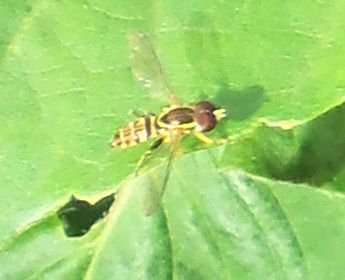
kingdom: Animalia
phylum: Arthropoda
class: Insecta
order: Diptera
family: Syrphidae
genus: Toxomerus
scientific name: Toxomerus geminatus
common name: Eastern calligrapher
